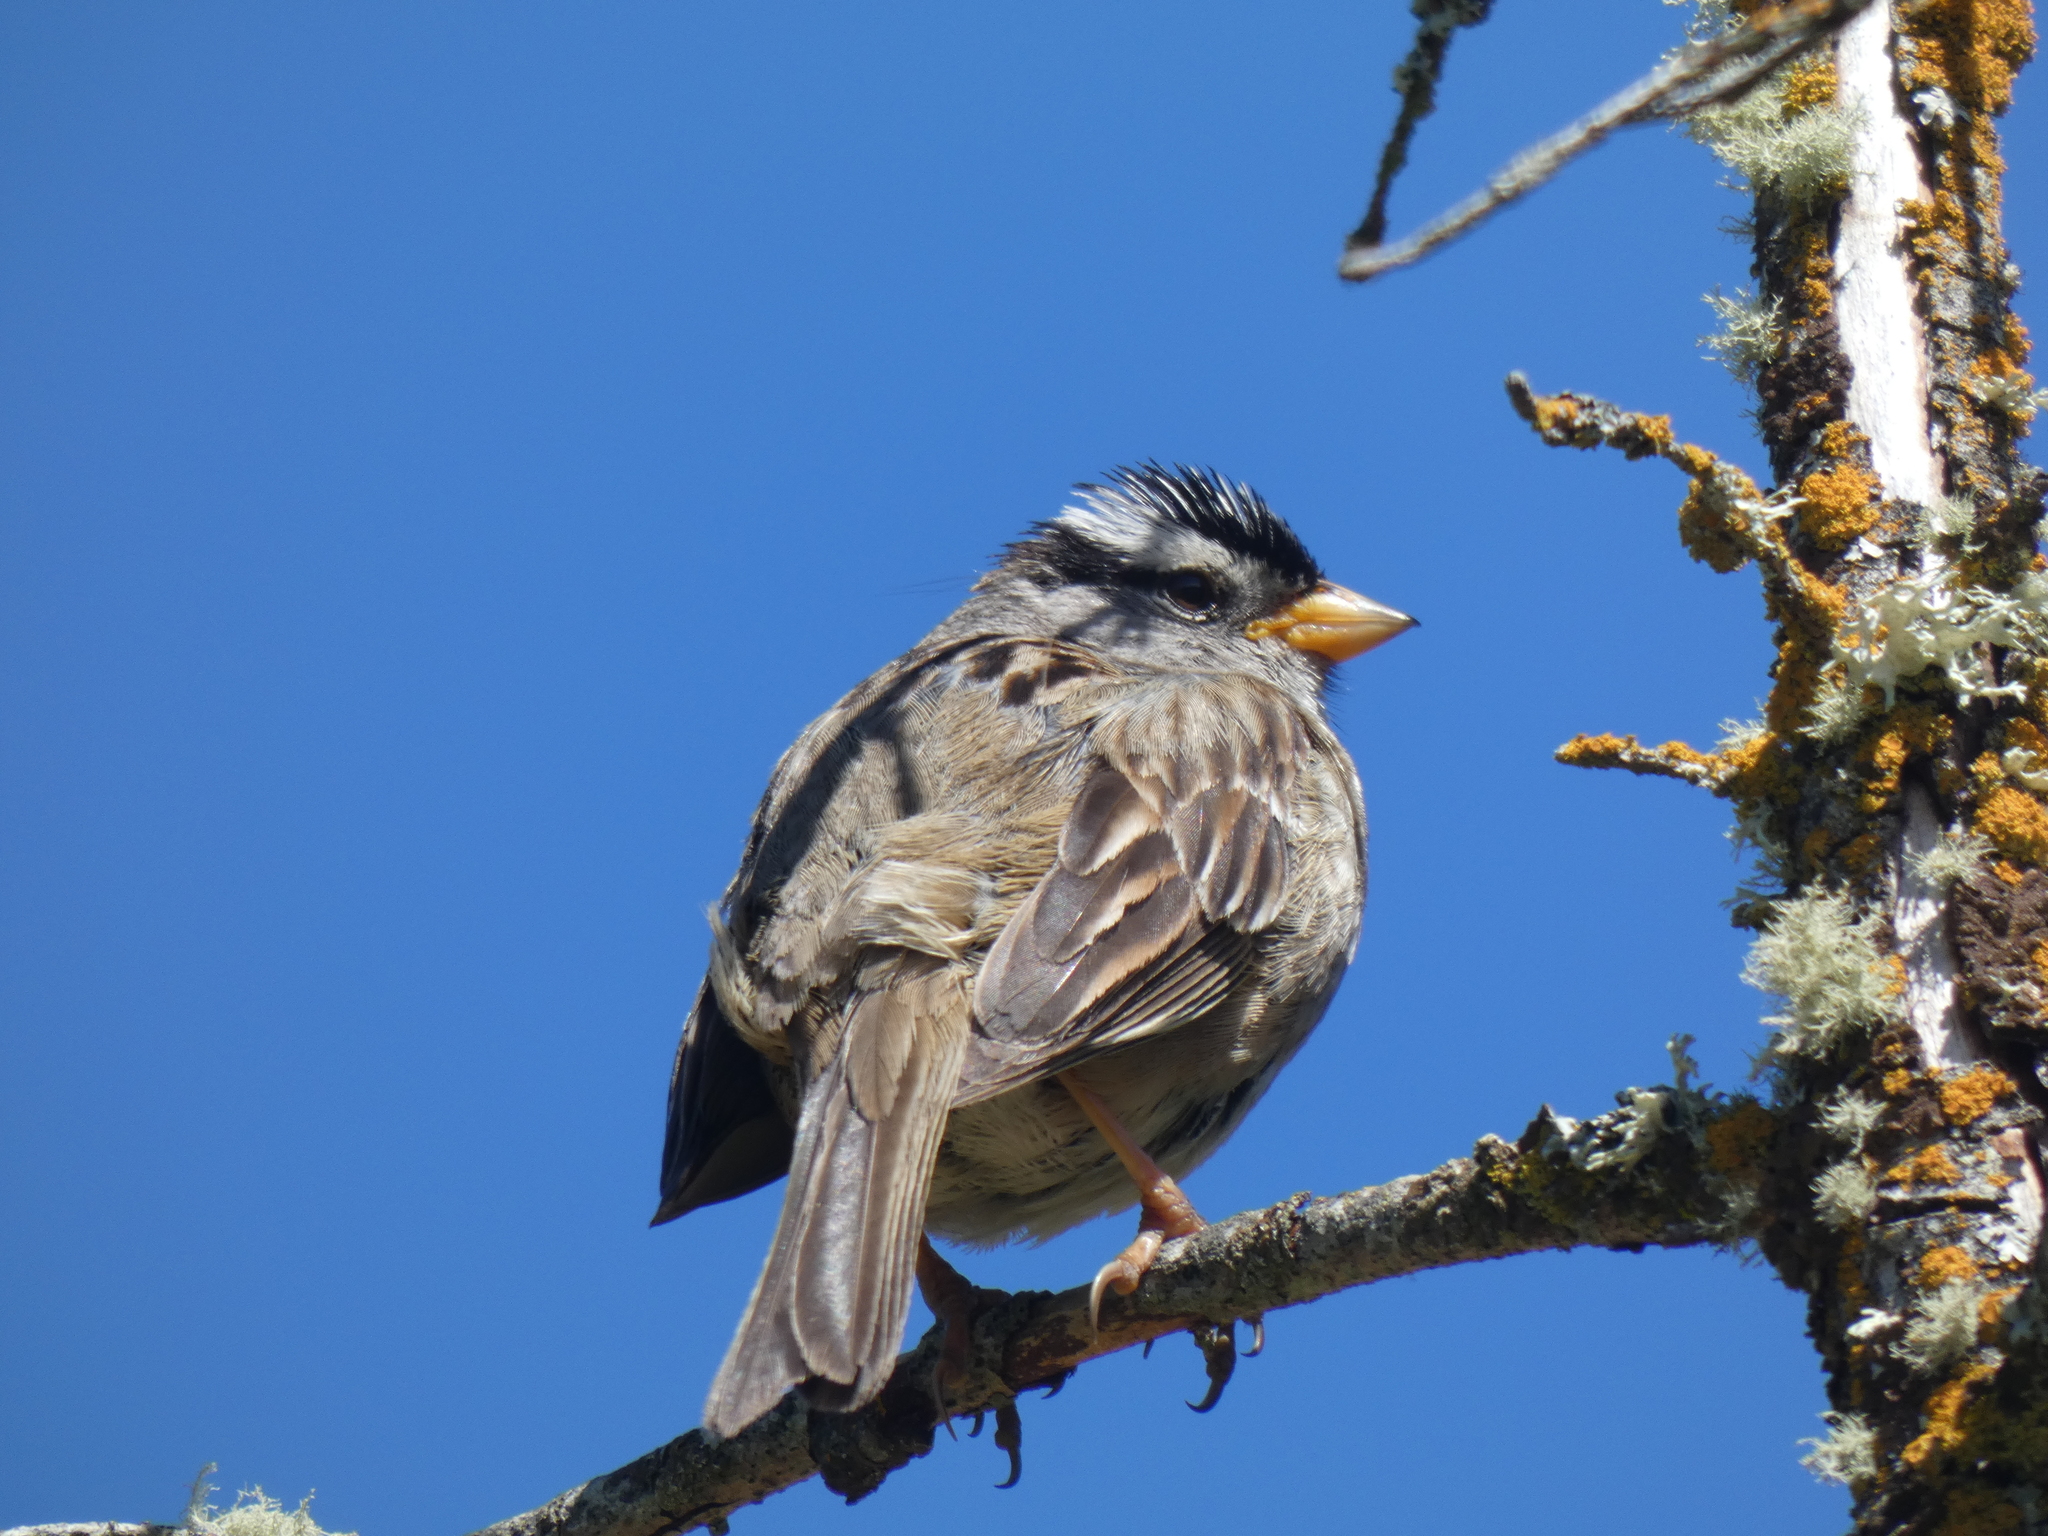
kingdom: Animalia
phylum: Chordata
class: Aves
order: Passeriformes
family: Passerellidae
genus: Zonotrichia
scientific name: Zonotrichia leucophrys
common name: White-crowned sparrow
